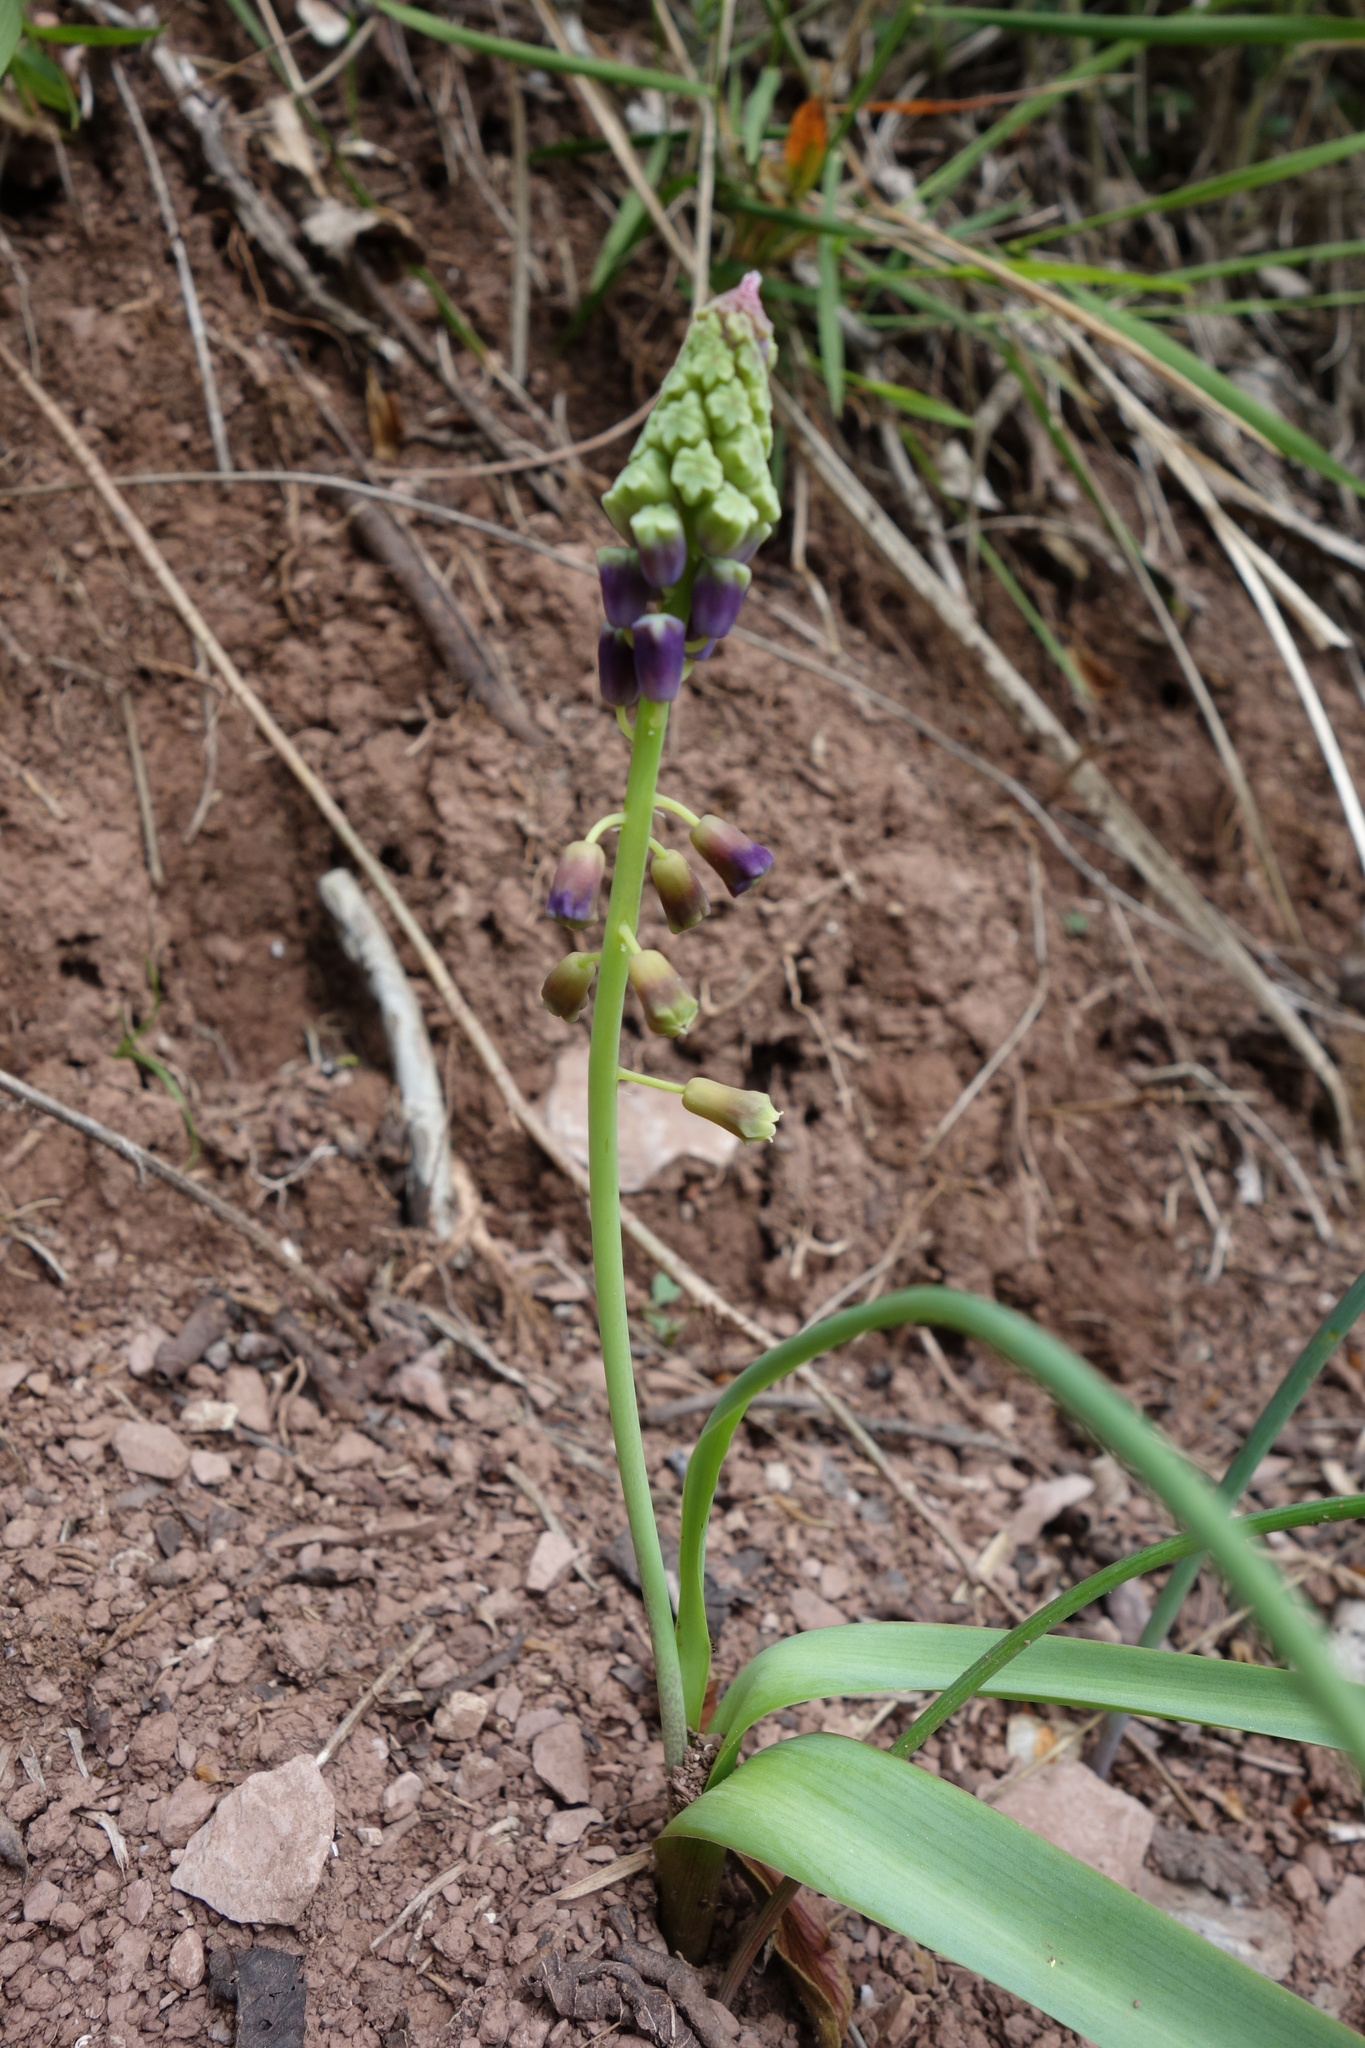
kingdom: Plantae
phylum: Tracheophyta
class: Liliopsida
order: Asparagales
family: Asparagaceae
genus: Muscari
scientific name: Muscari comosum
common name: Tassel hyacinth
